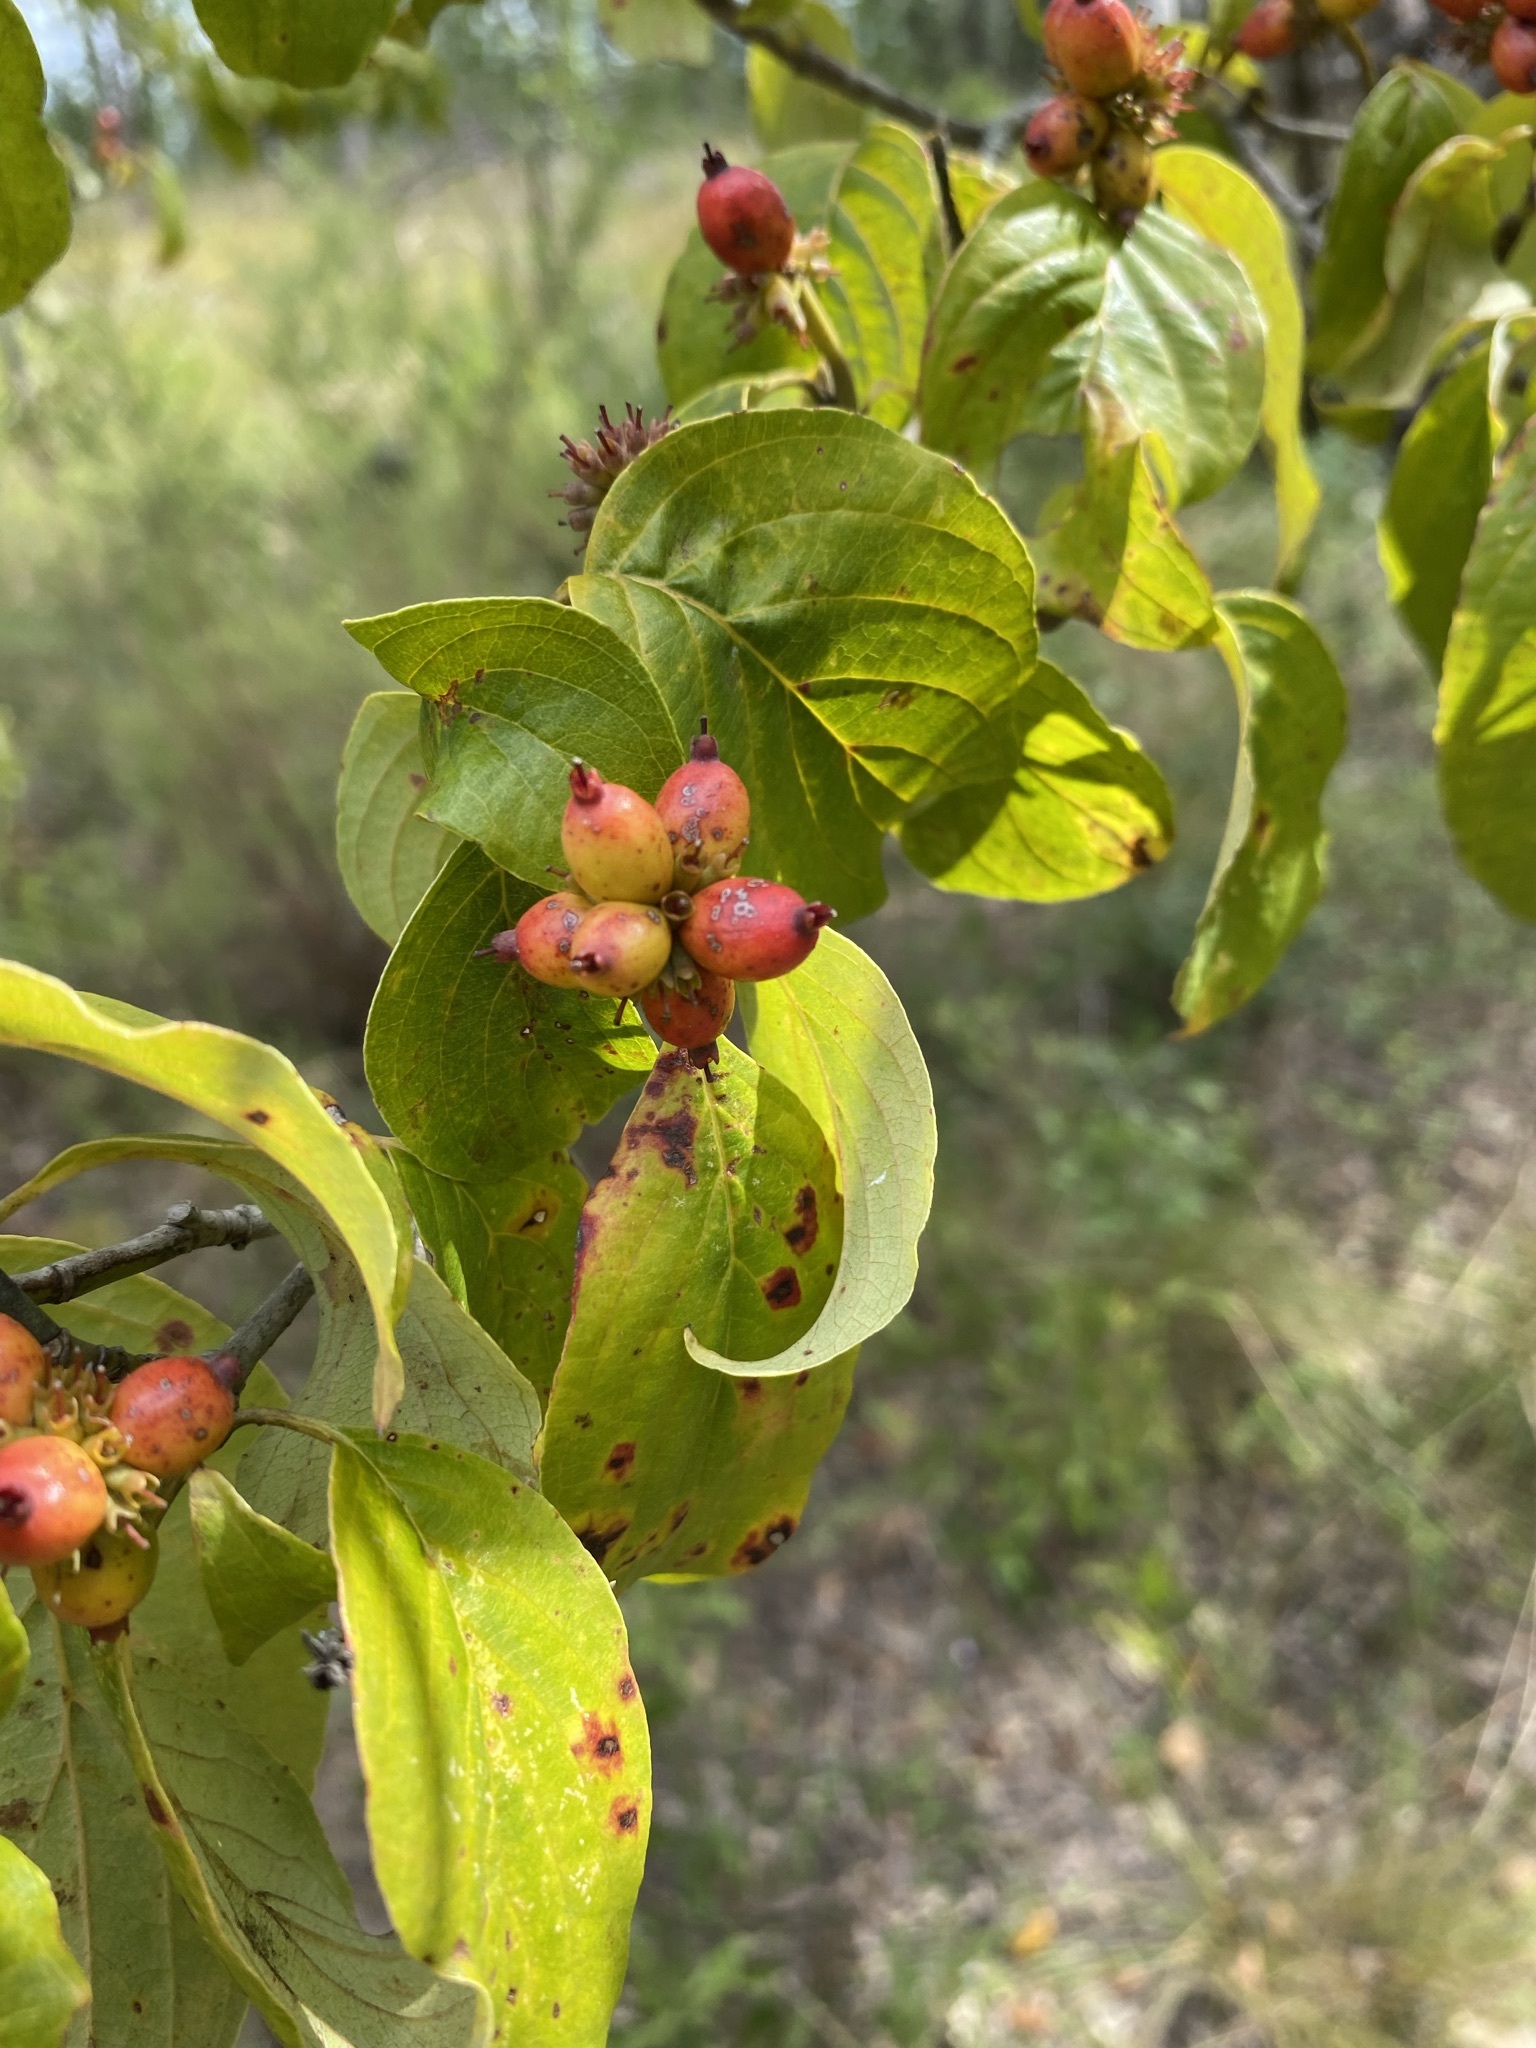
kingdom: Plantae
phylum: Tracheophyta
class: Magnoliopsida
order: Cornales
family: Cornaceae
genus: Cornus
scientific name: Cornus florida
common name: Flowering dogwood
